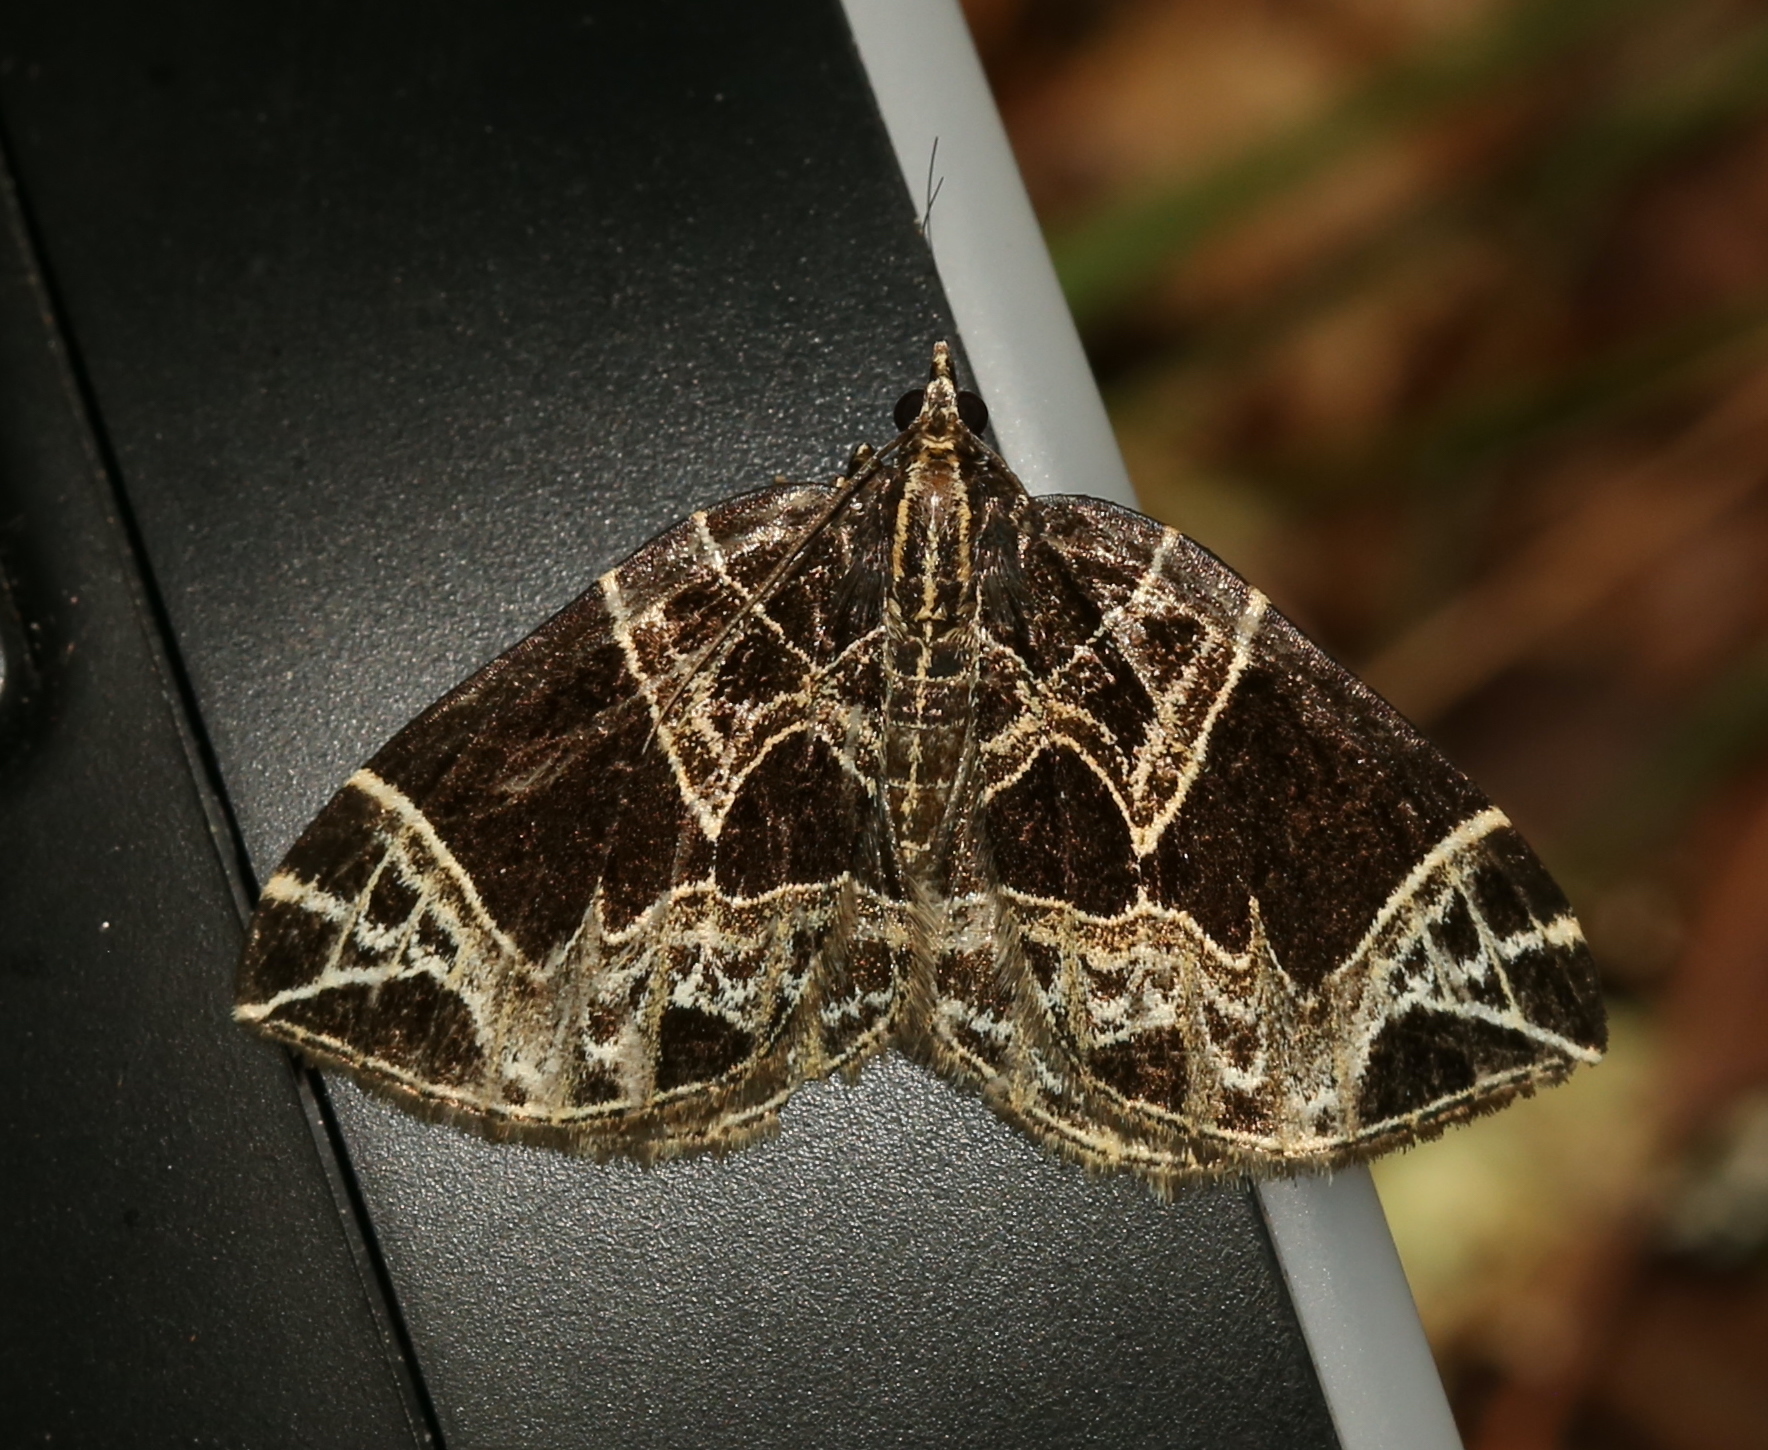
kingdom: Animalia
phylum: Arthropoda
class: Insecta
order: Lepidoptera
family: Geometridae
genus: Ecliptopera
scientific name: Ecliptopera atricolorata
